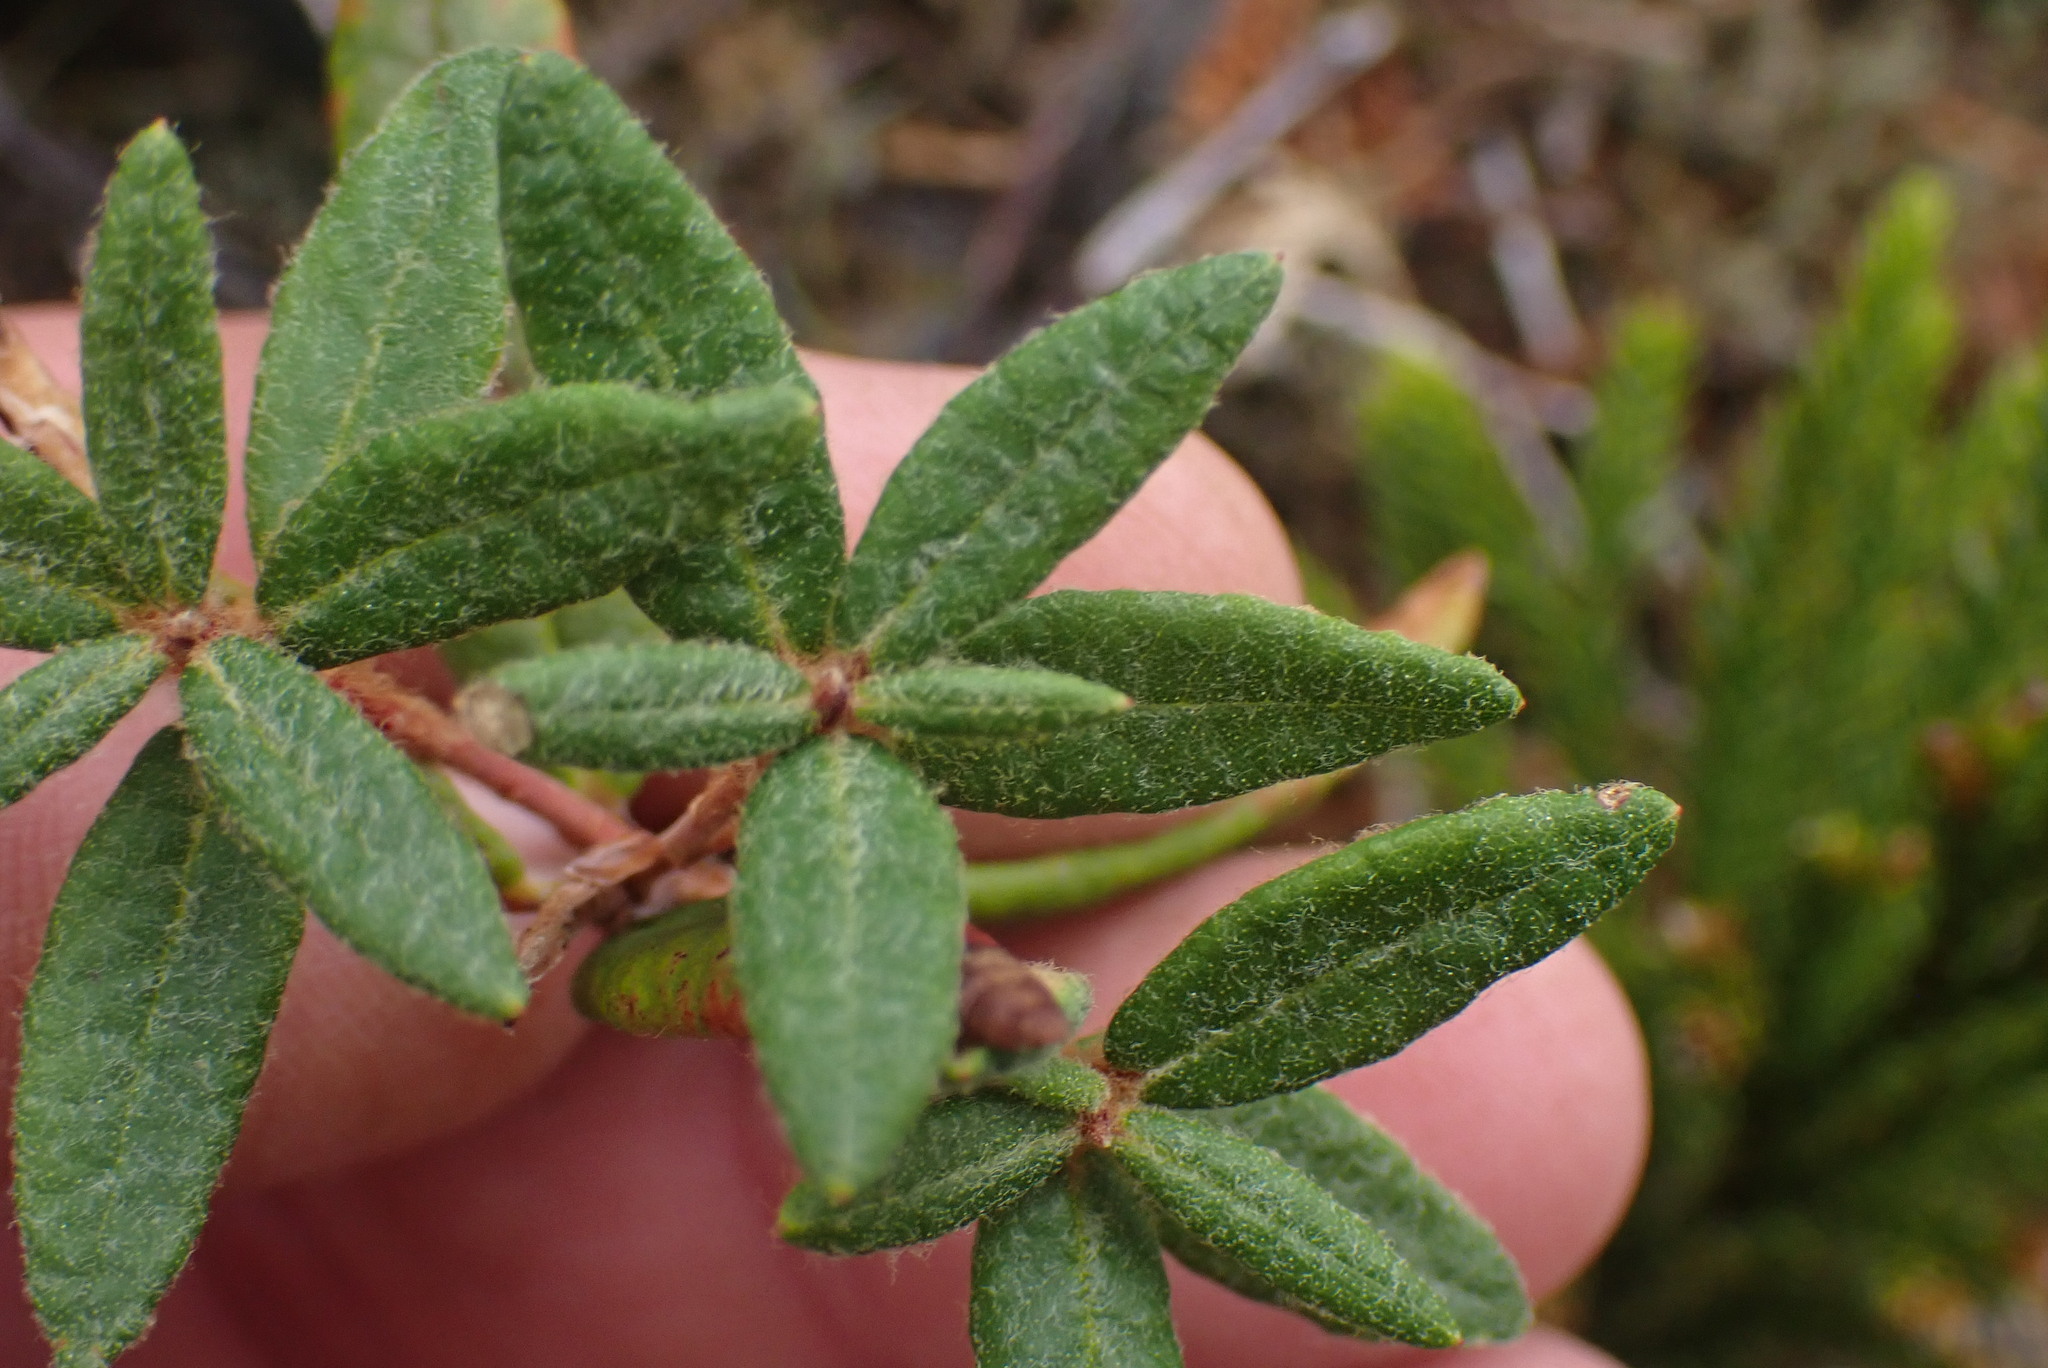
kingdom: Plantae
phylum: Tracheophyta
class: Magnoliopsida
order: Ericales
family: Ericaceae
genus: Rhododendron
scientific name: Rhododendron groenlandicum
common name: Bog labrador tea
